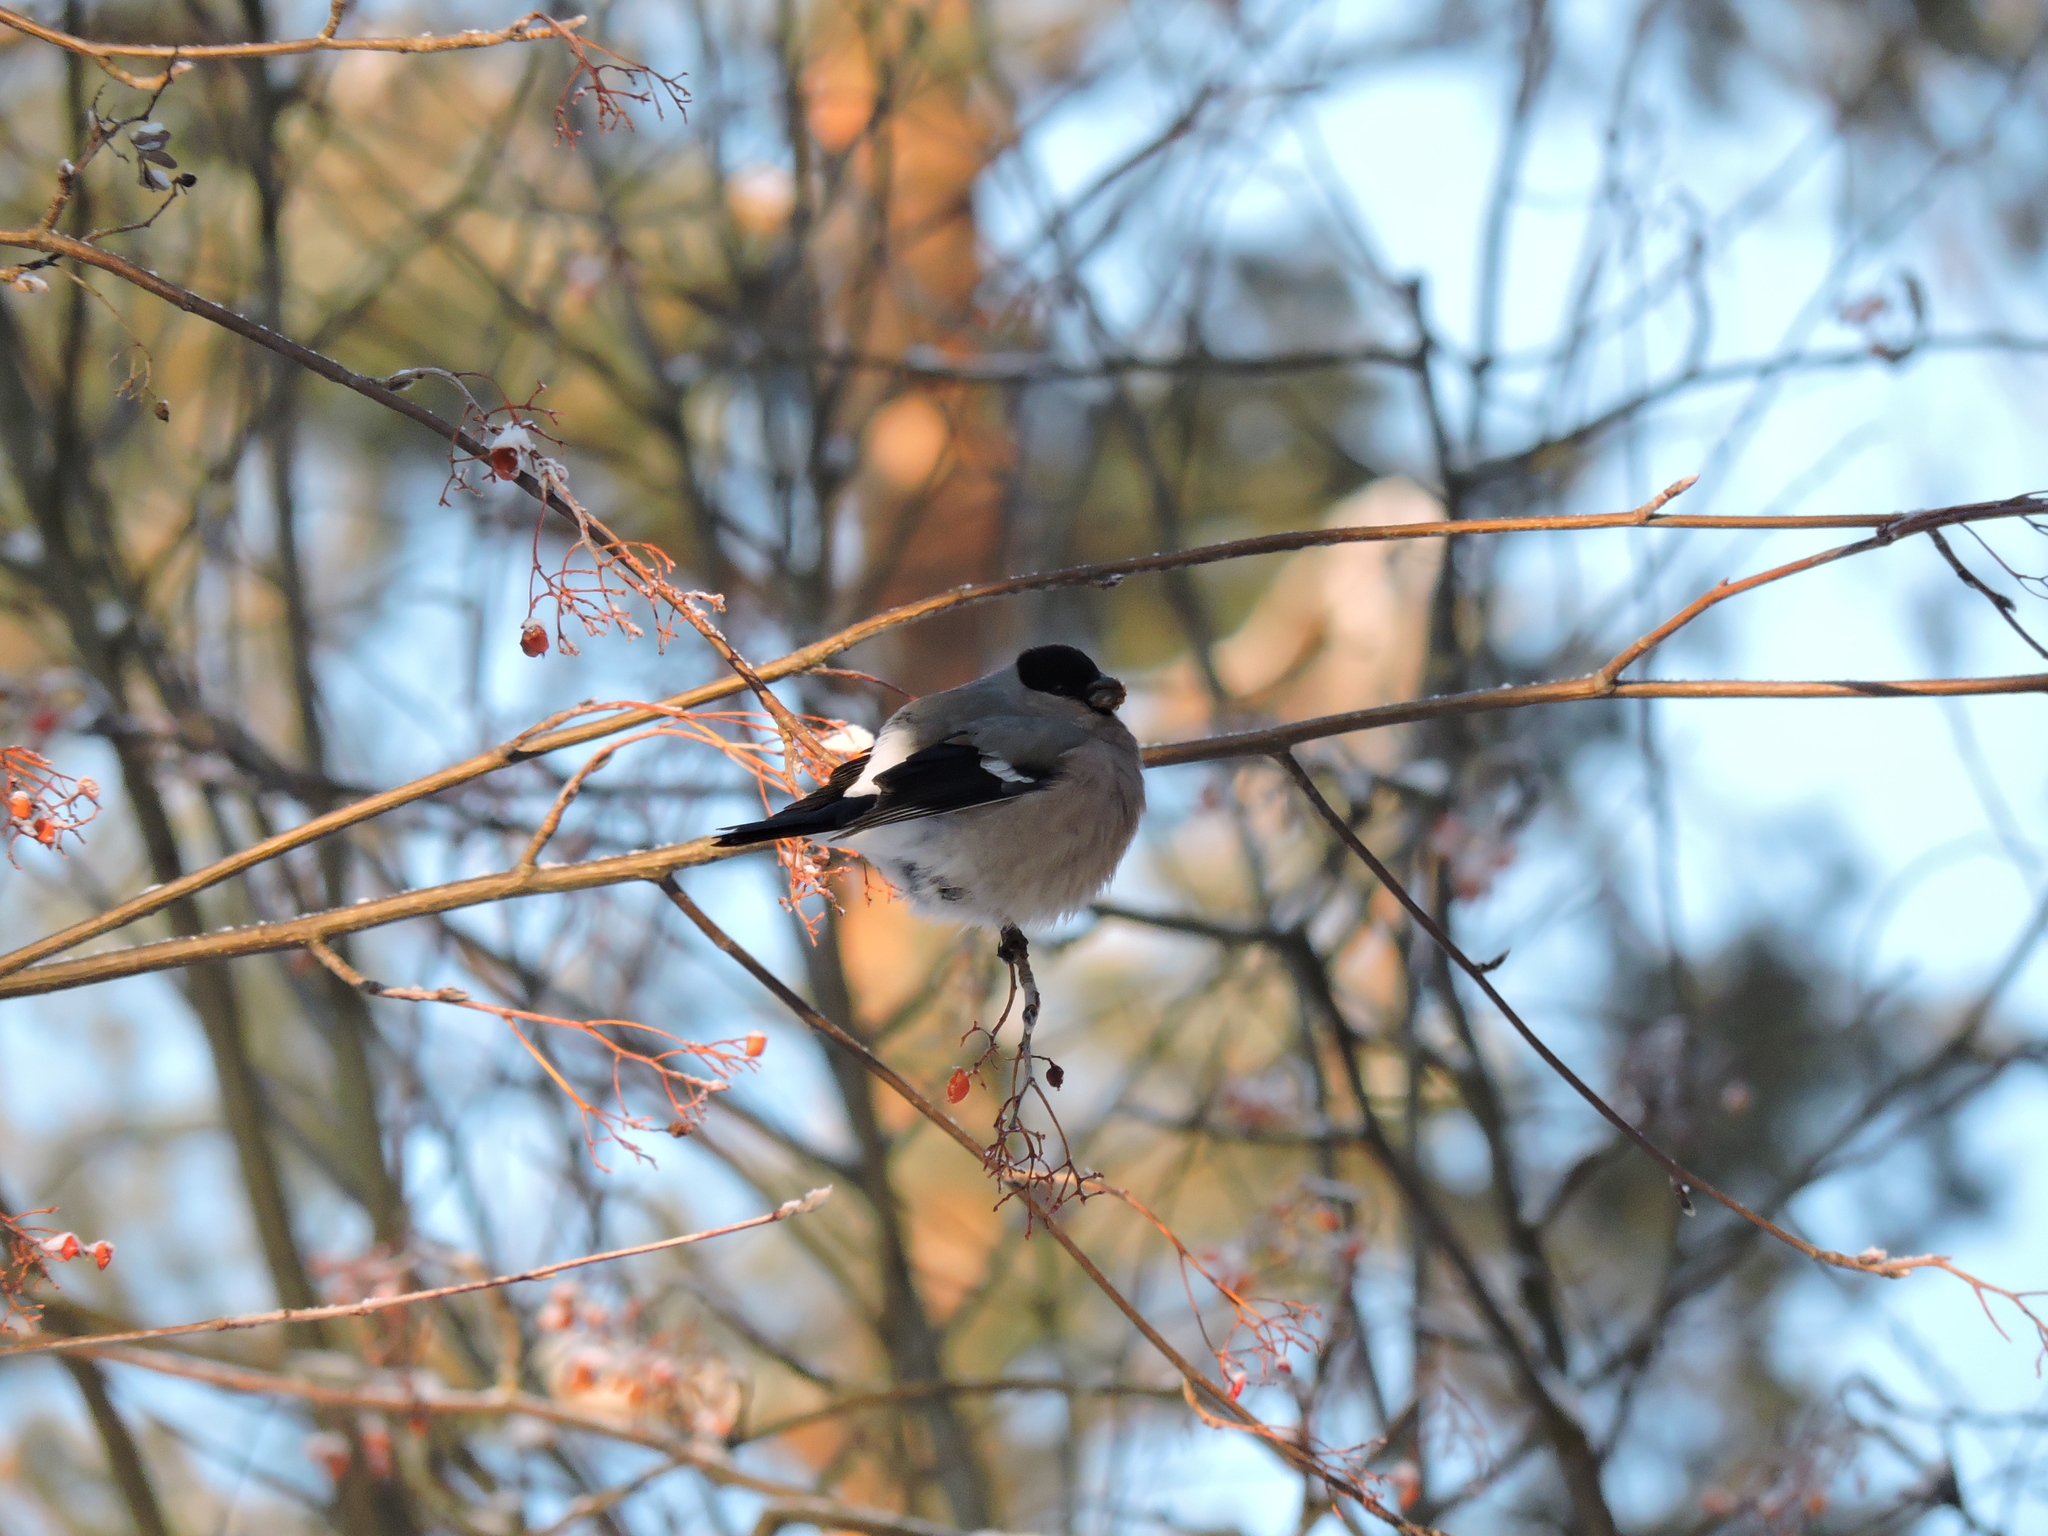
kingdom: Animalia
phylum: Chordata
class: Aves
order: Passeriformes
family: Fringillidae
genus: Pyrrhula
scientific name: Pyrrhula pyrrhula
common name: Eurasian bullfinch
